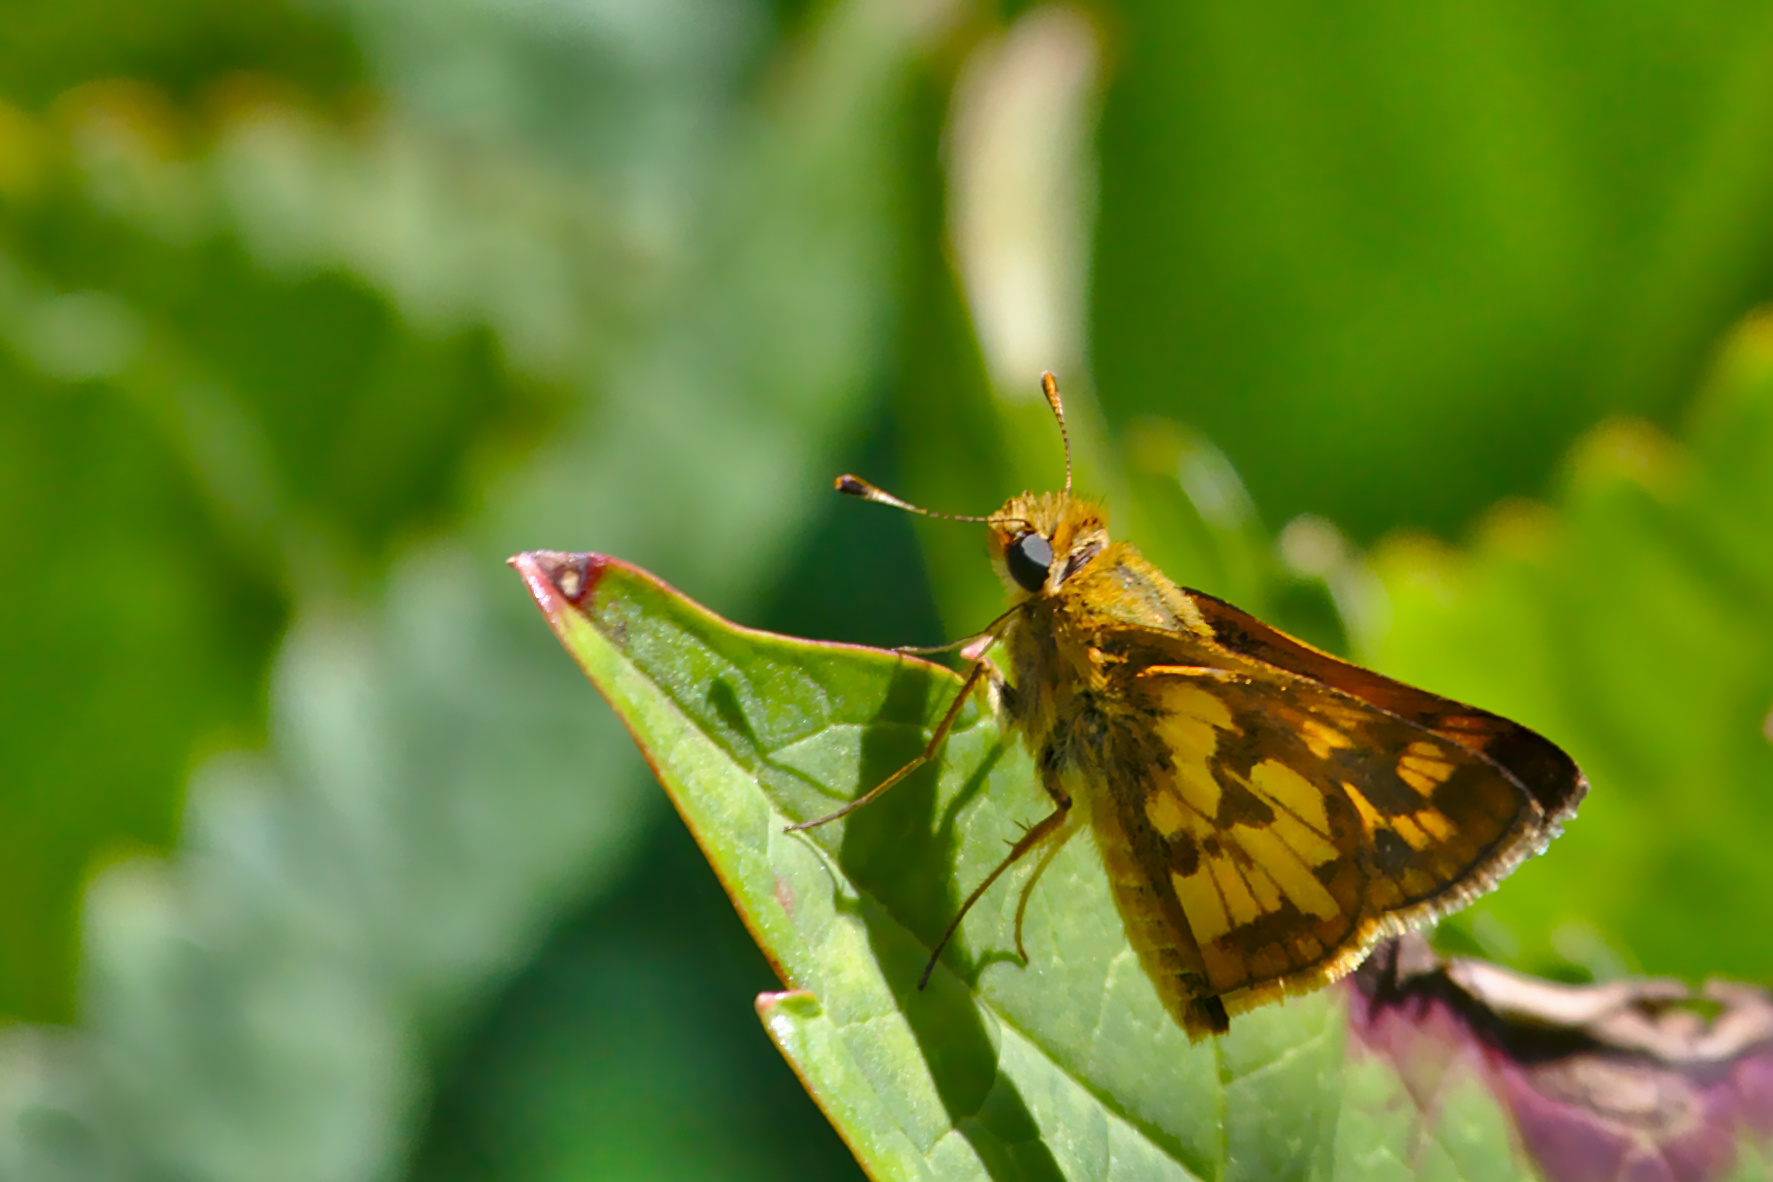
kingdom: Animalia
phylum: Arthropoda
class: Insecta
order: Lepidoptera
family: Hesperiidae
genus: Polites
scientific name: Polites coras
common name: Peck's skipper
